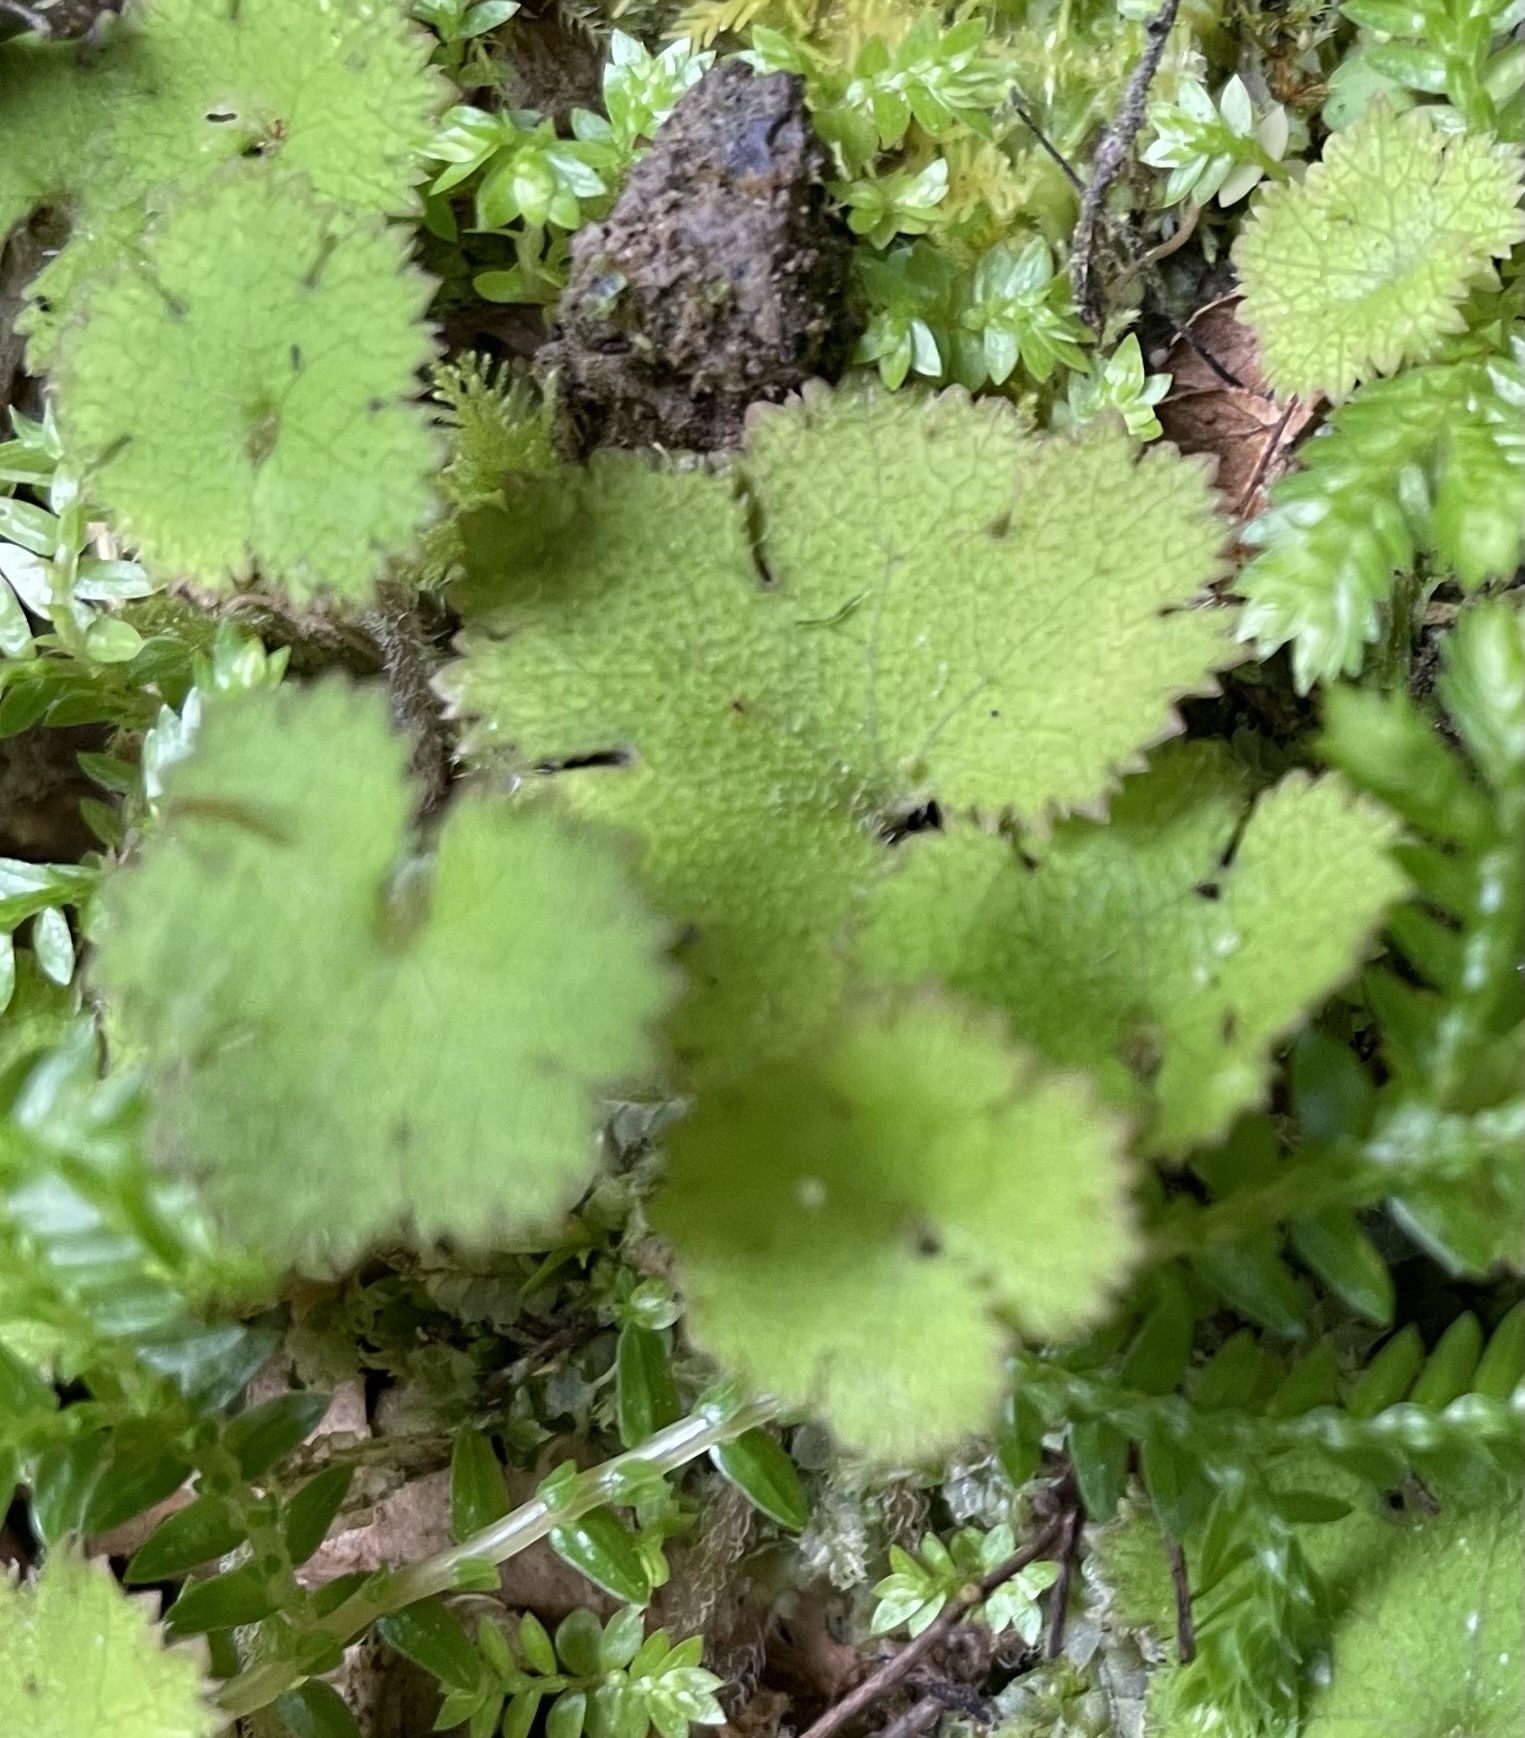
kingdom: Plantae
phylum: Tracheophyta
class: Magnoliopsida
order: Apiales
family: Araliaceae
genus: Hydrocotyle
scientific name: Hydrocotyle elongata
